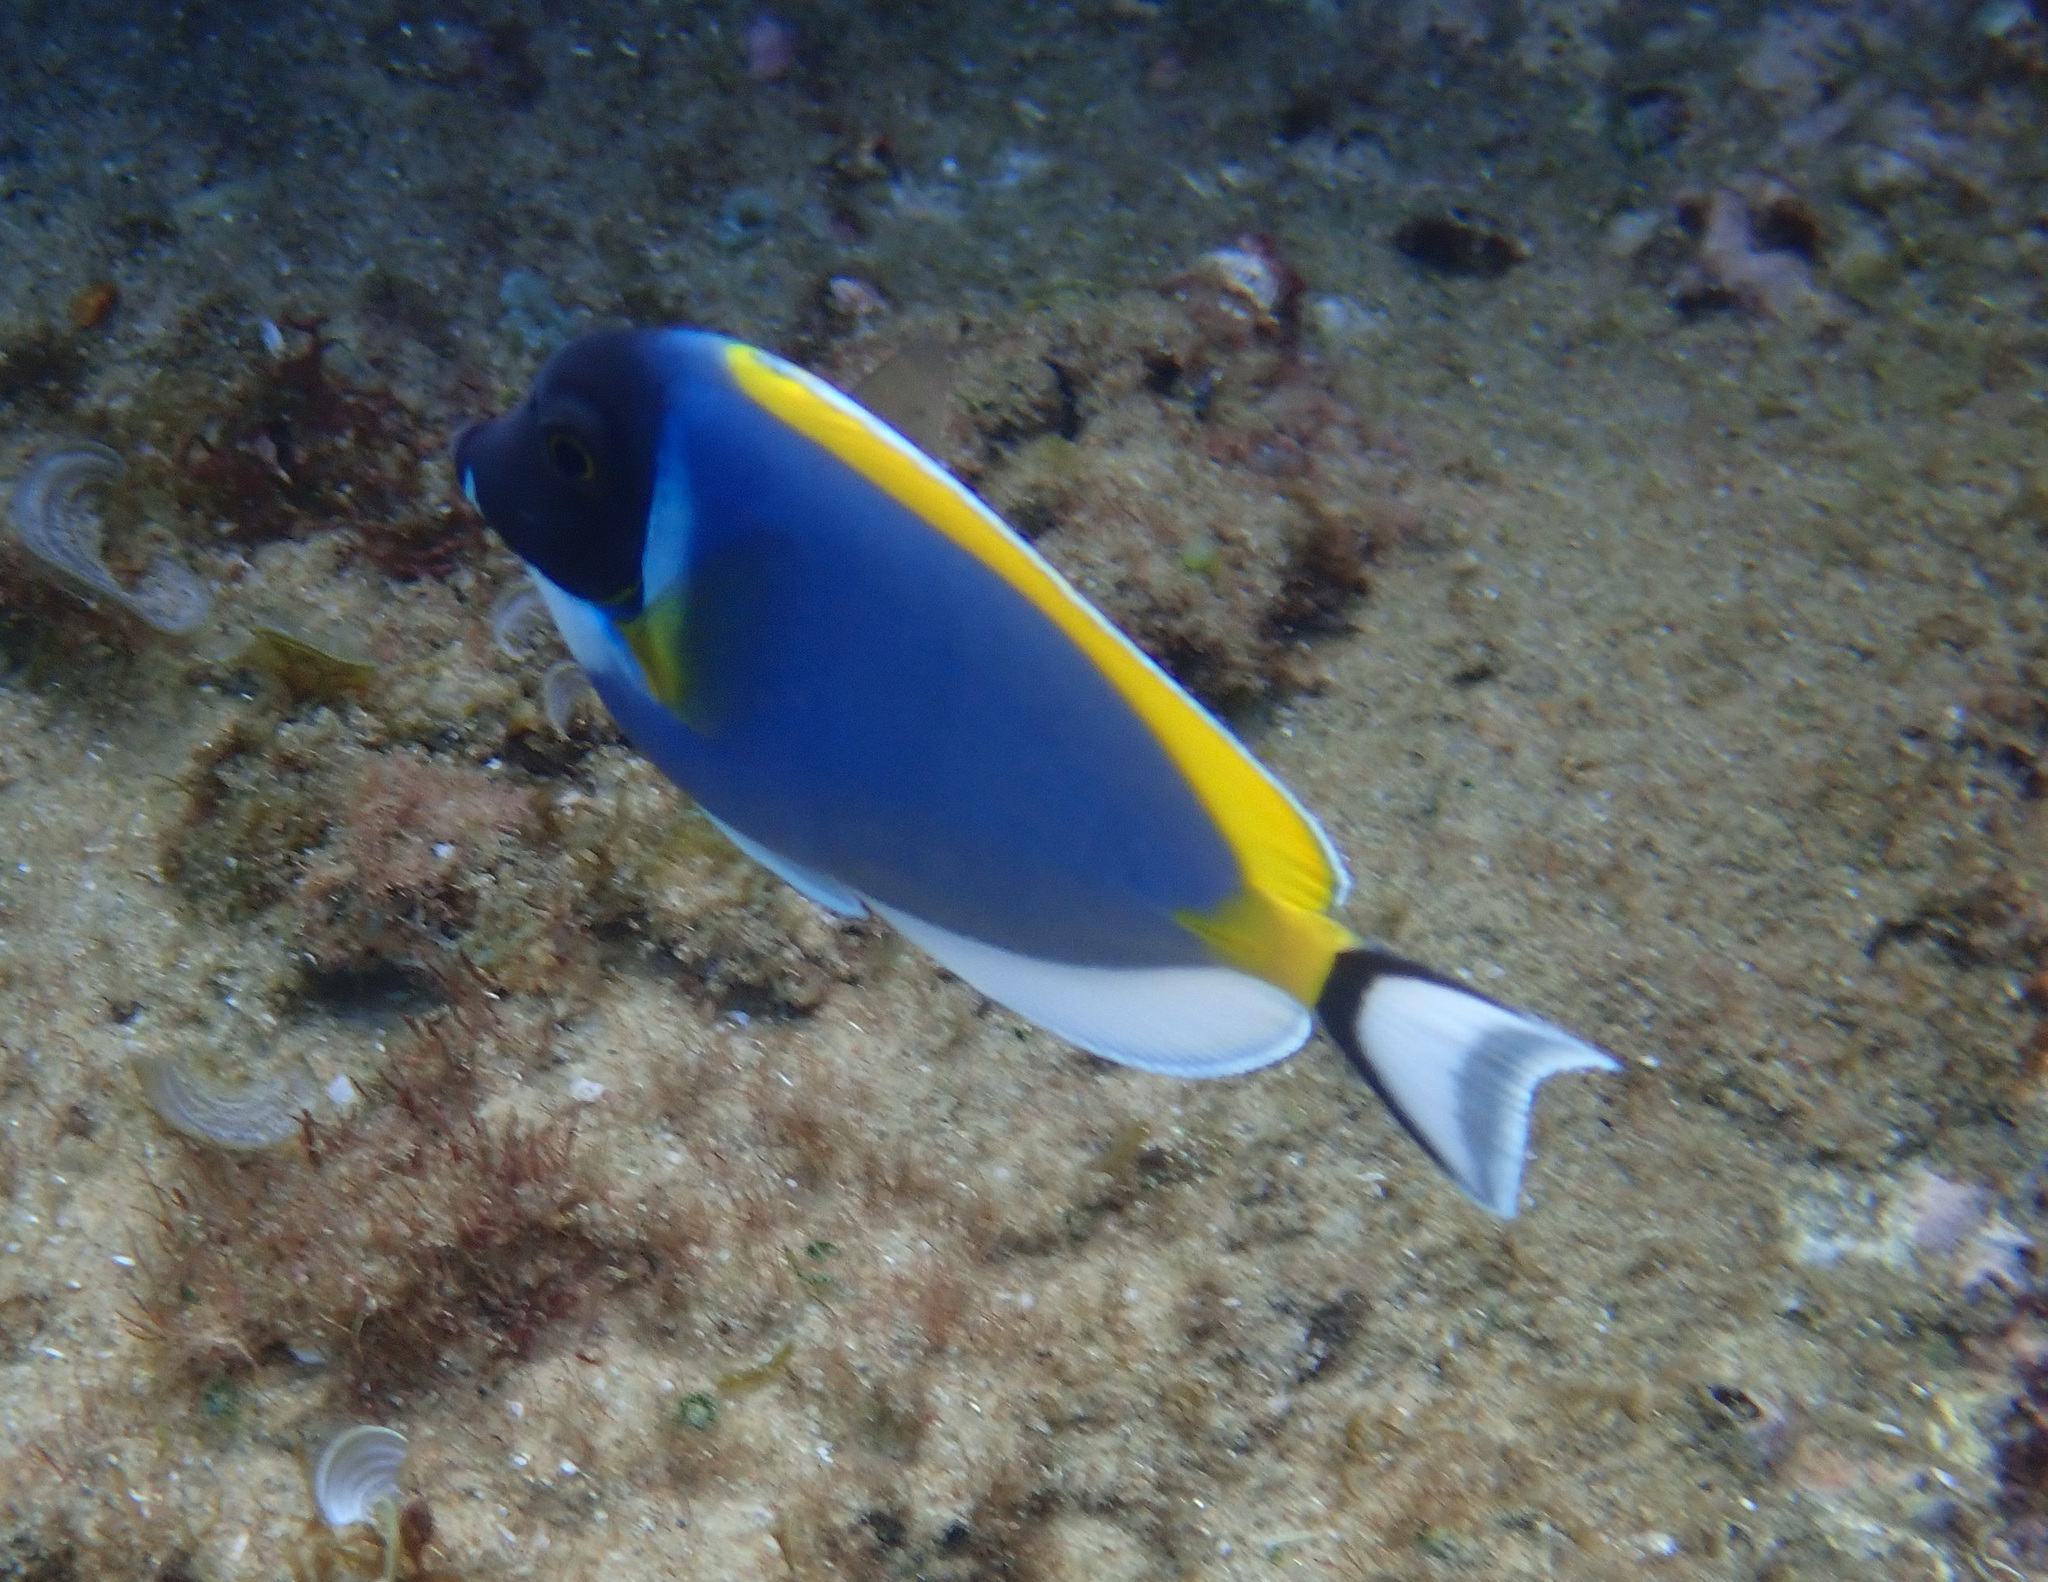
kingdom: Animalia
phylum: Chordata
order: Perciformes
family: Acanthuridae
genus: Acanthurus
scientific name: Acanthurus leucosternon
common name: Blue surgeonfish
